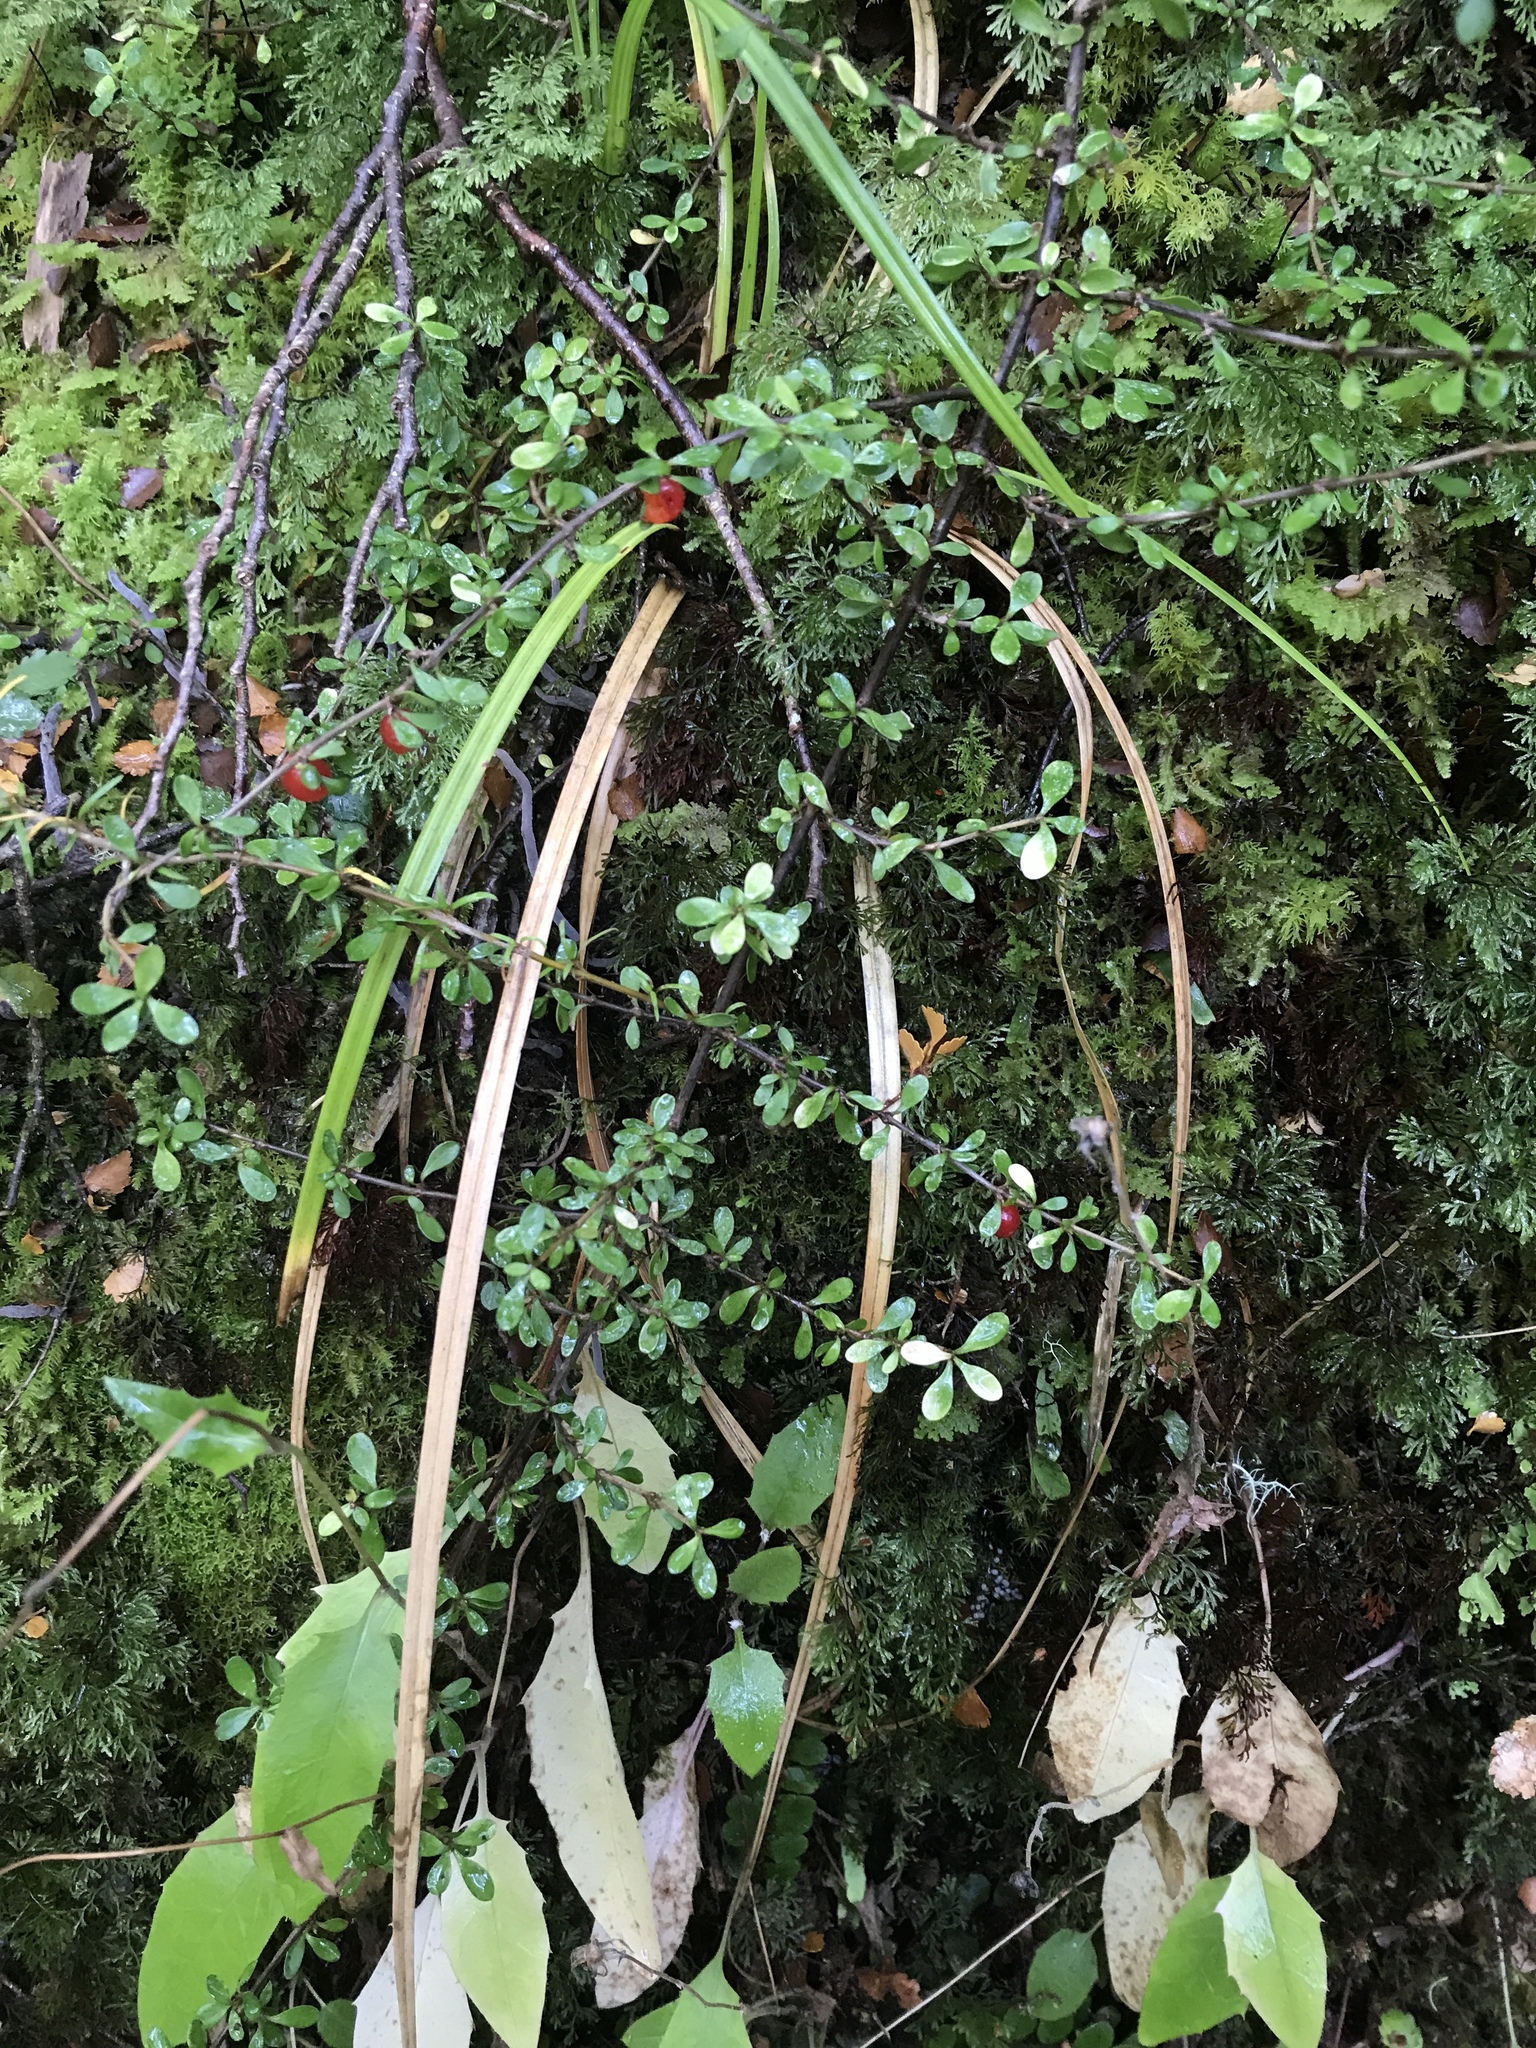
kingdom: Plantae
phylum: Tracheophyta
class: Magnoliopsida
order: Gentianales
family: Rubiaceae
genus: Coprosma
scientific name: Coprosma depressa
